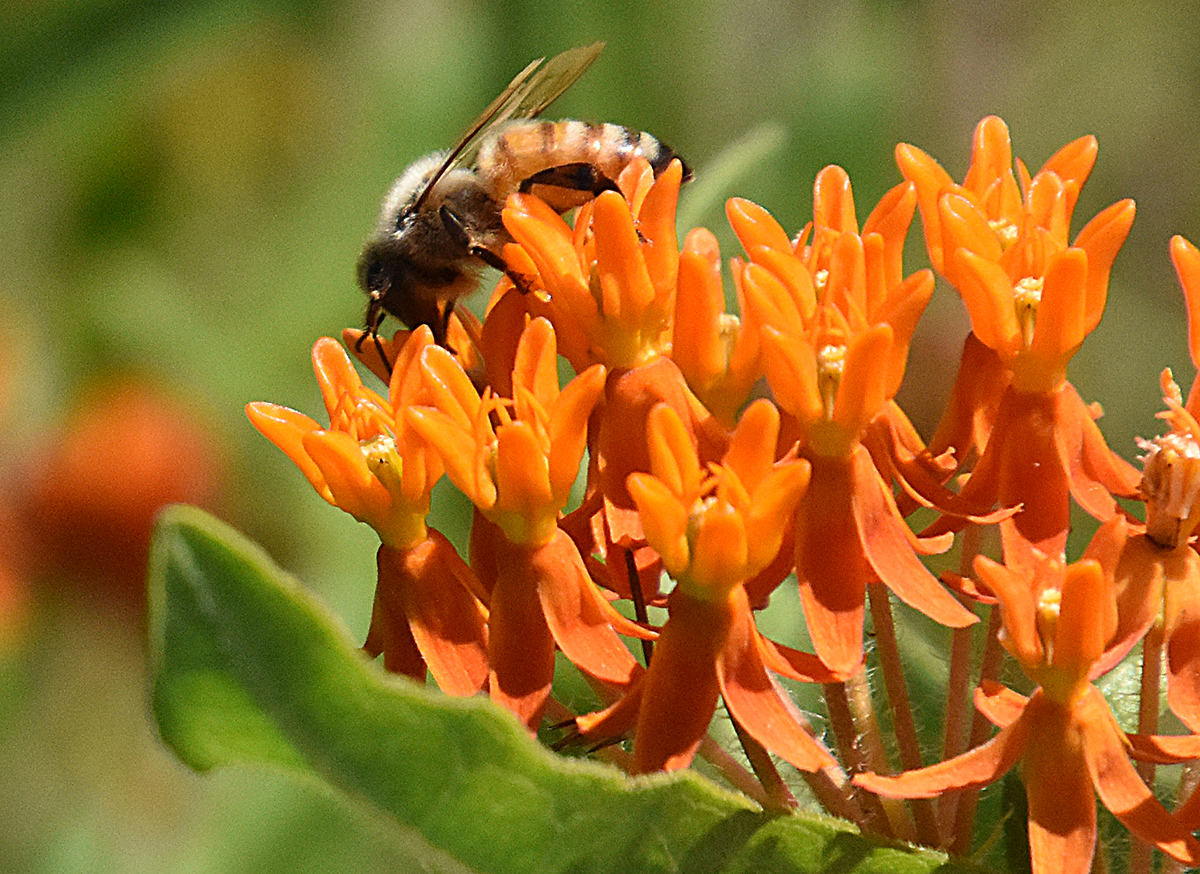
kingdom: Animalia
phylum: Arthropoda
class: Insecta
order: Hymenoptera
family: Apidae
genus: Apis
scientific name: Apis mellifera
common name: Honey bee
